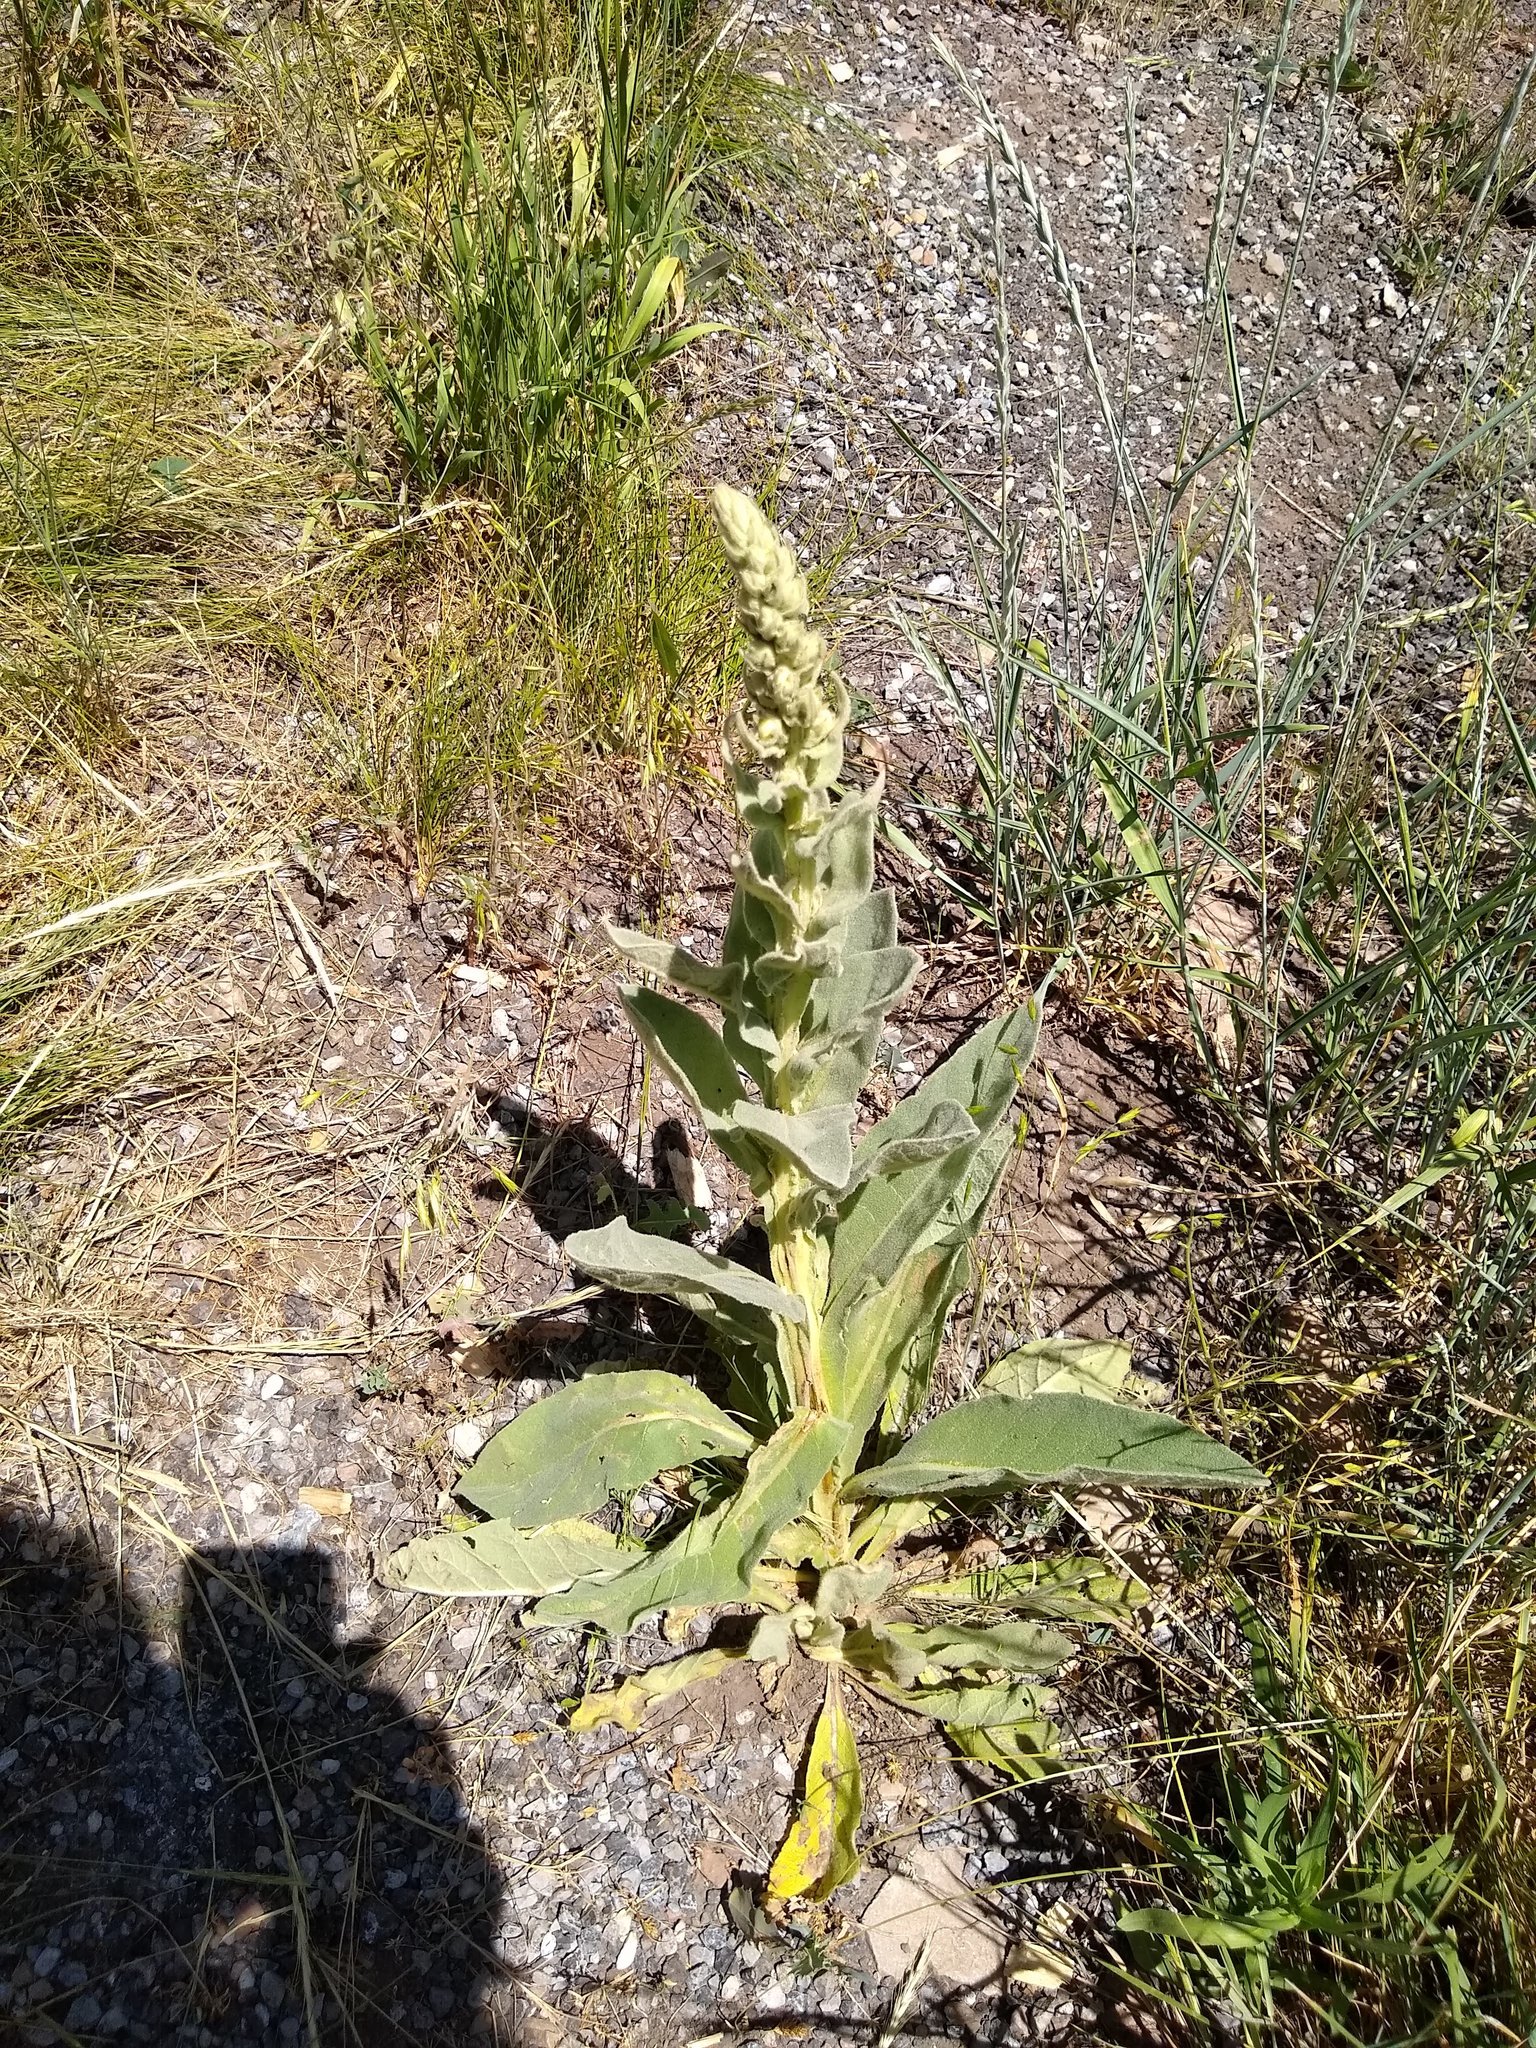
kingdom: Plantae
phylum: Tracheophyta
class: Magnoliopsida
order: Lamiales
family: Scrophulariaceae
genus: Verbascum
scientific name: Verbascum thapsus
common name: Common mullein
